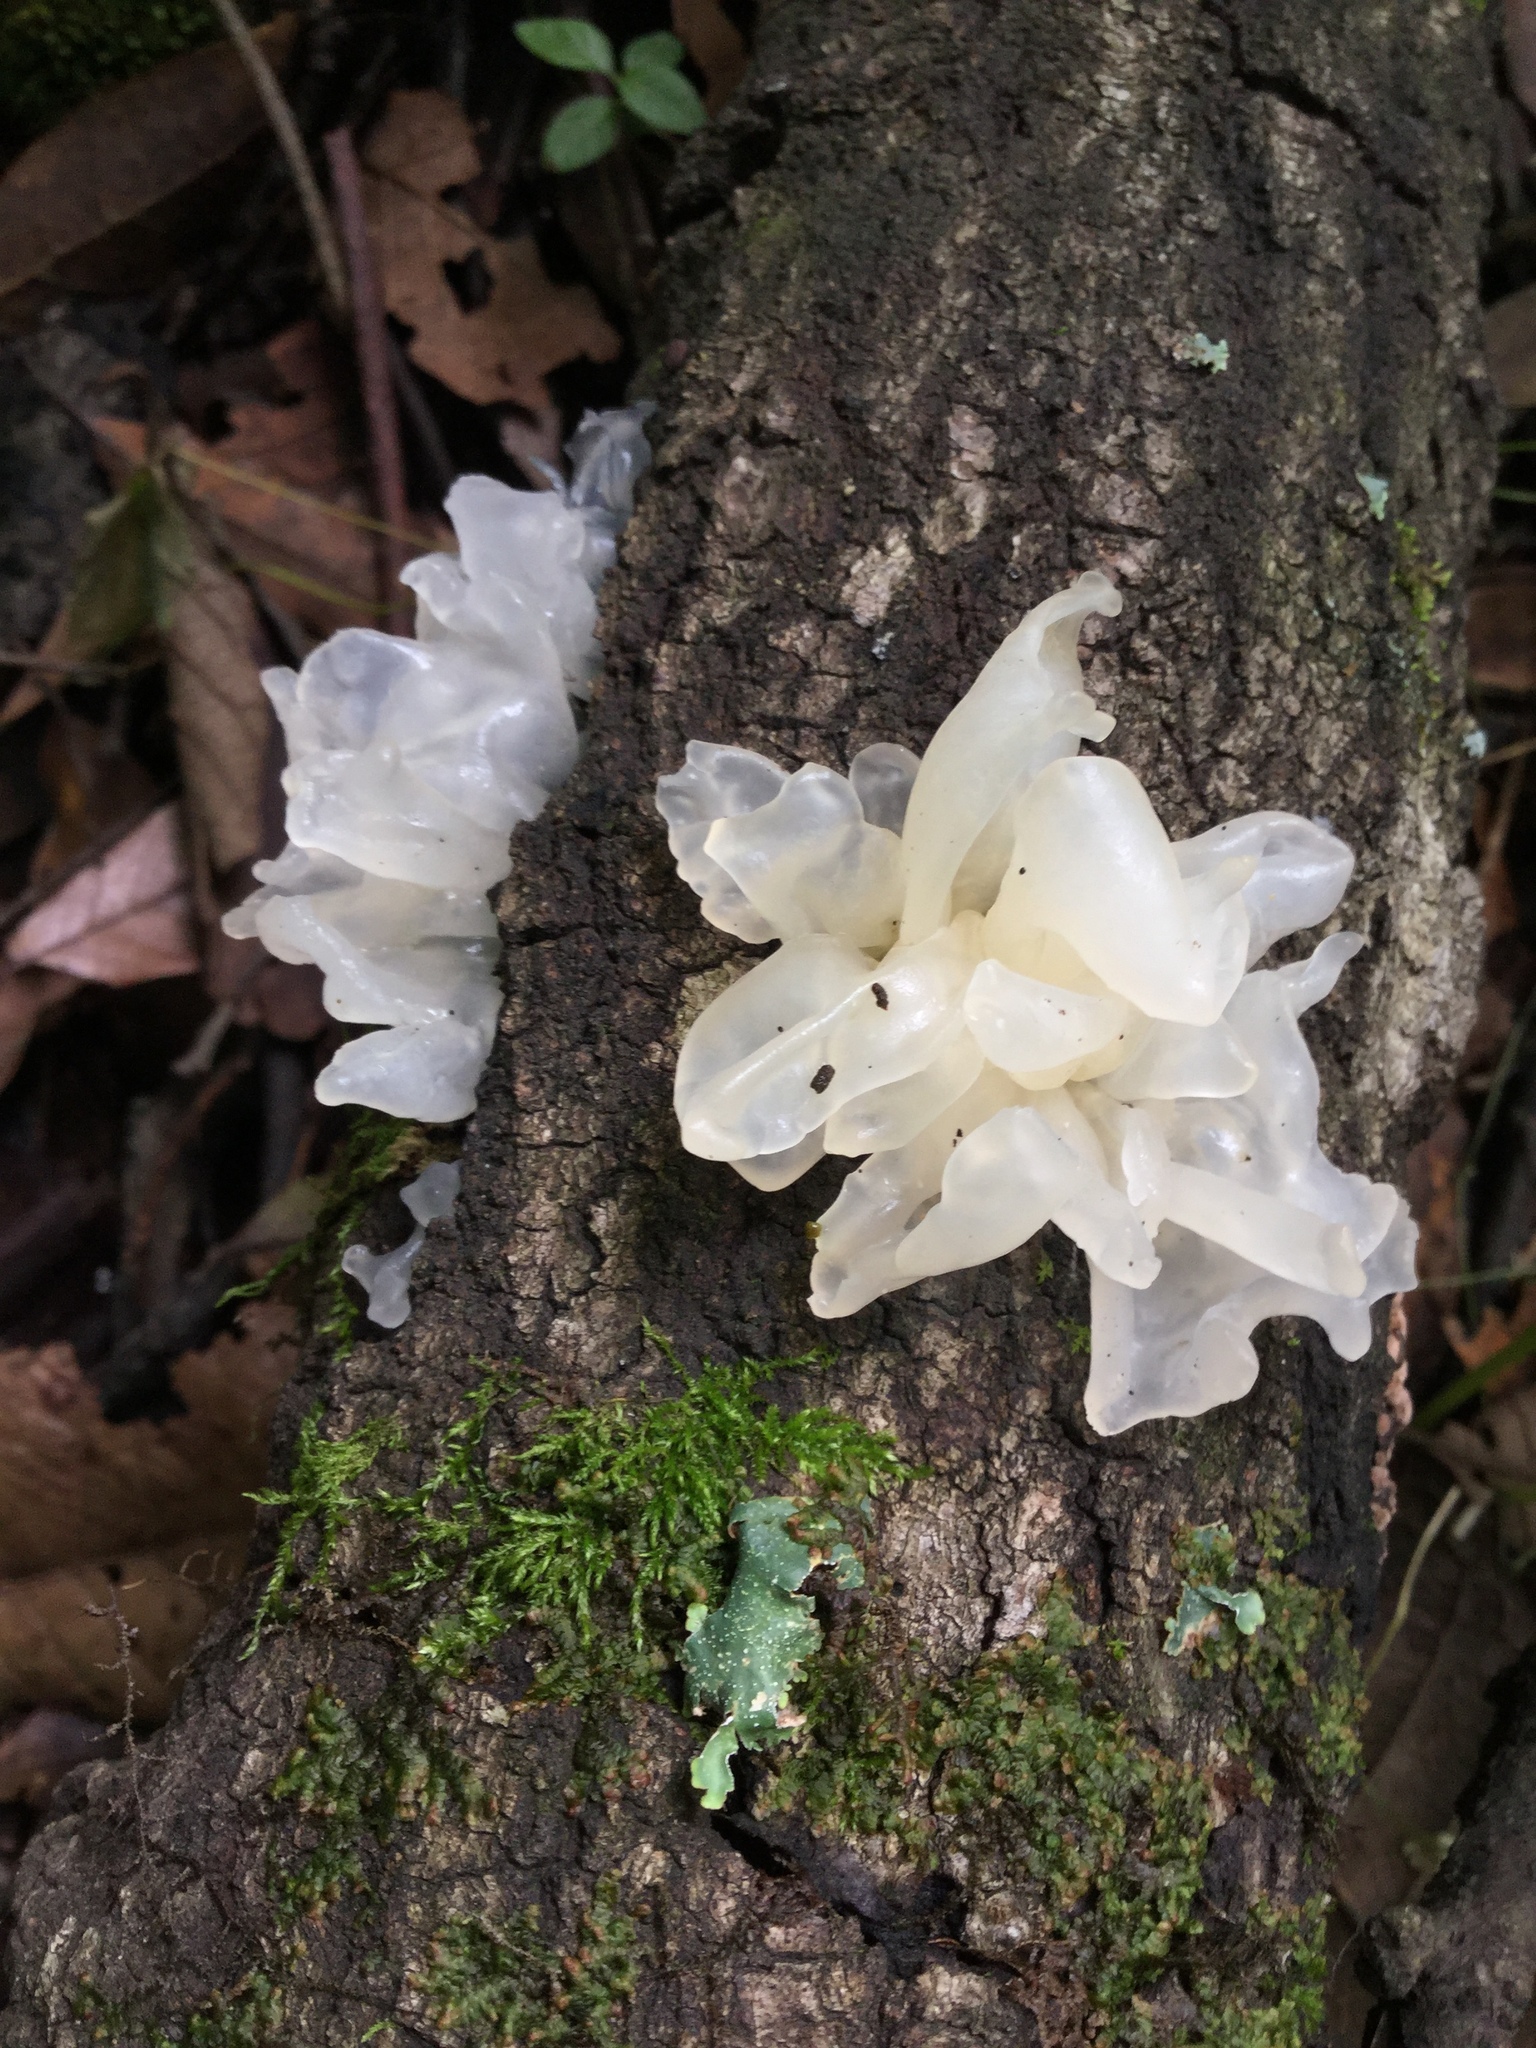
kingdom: Fungi
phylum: Basidiomycota
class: Tremellomycetes
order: Tremellales
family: Tremellaceae
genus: Tremella
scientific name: Tremella fuciformis
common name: Snow fungus
